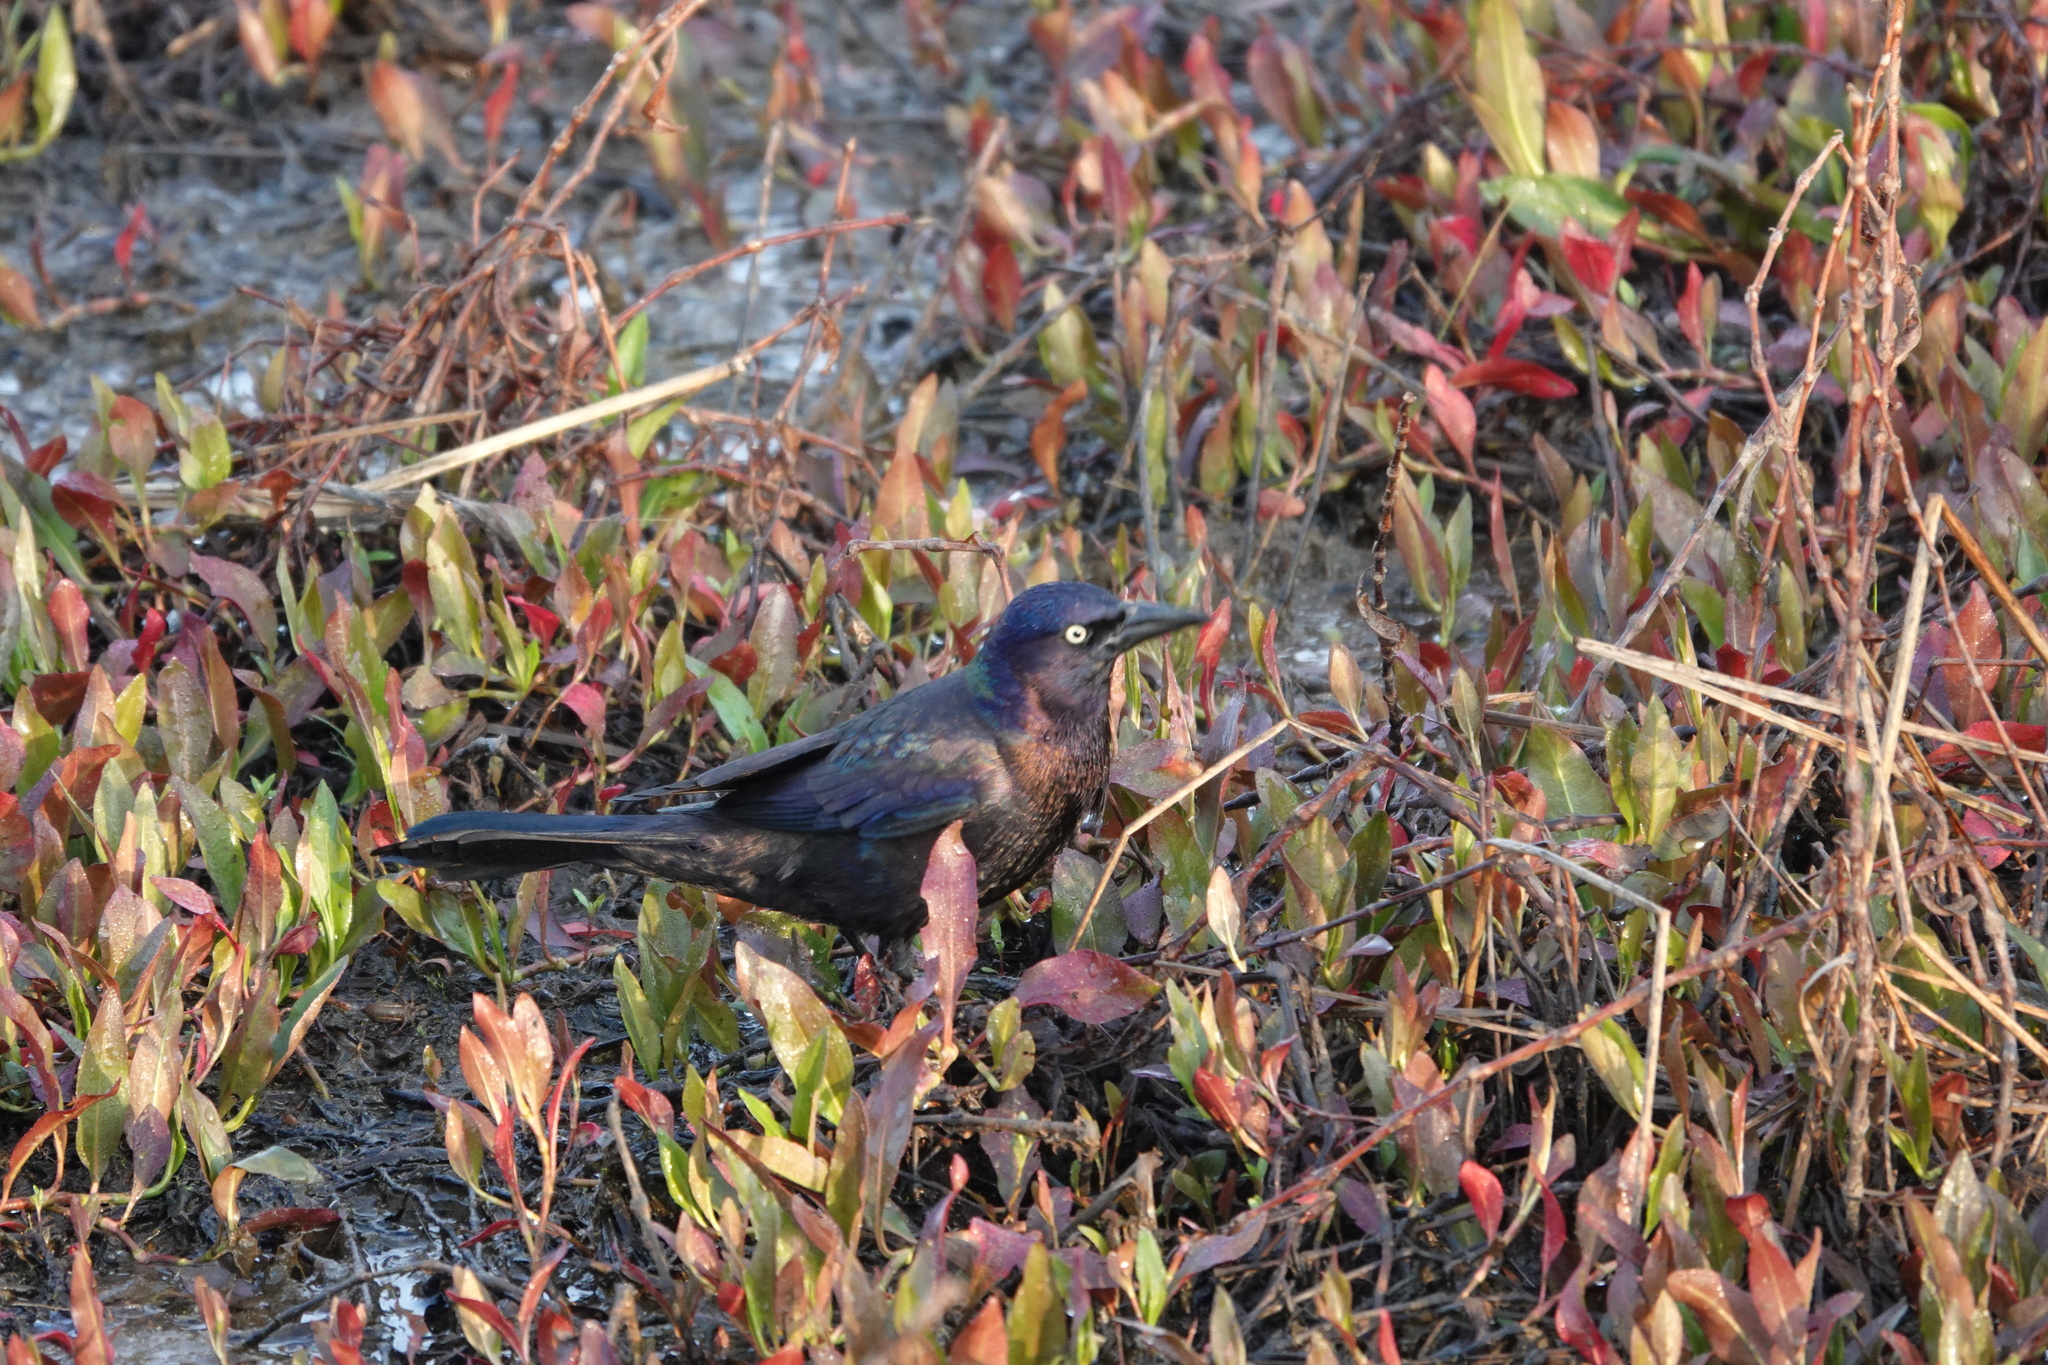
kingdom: Animalia
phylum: Chordata
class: Aves
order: Passeriformes
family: Icteridae
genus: Quiscalus
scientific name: Quiscalus quiscula
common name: Common grackle
